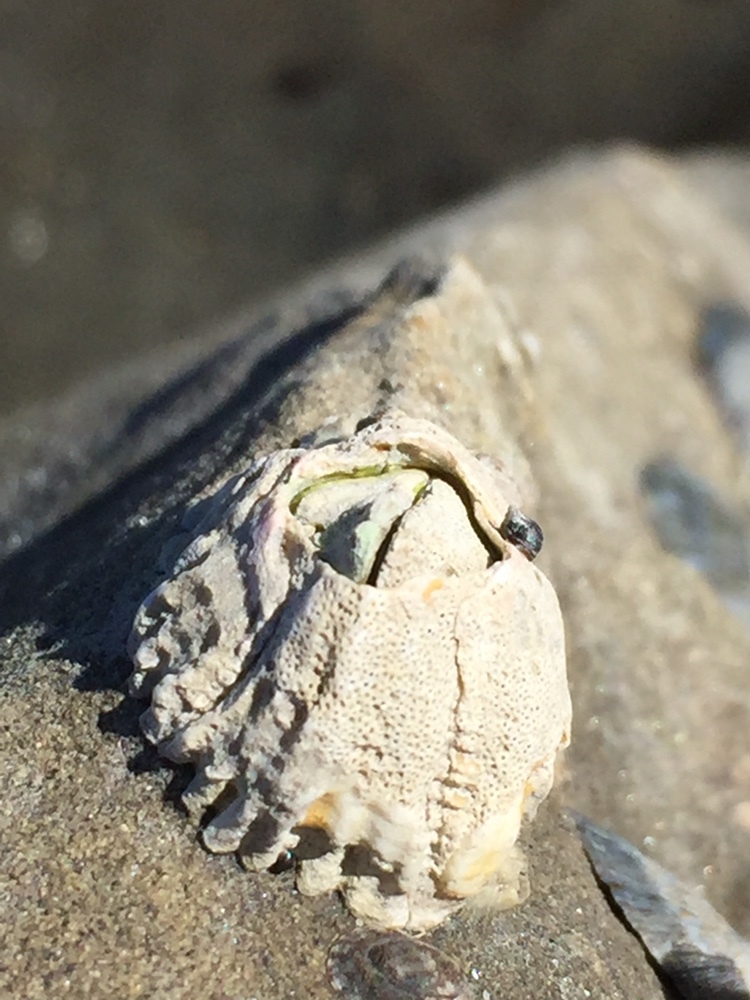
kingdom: Animalia
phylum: Arthropoda
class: Maxillopoda
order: Sessilia
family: Tetraclitidae
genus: Epopella
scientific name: Epopella plicata
